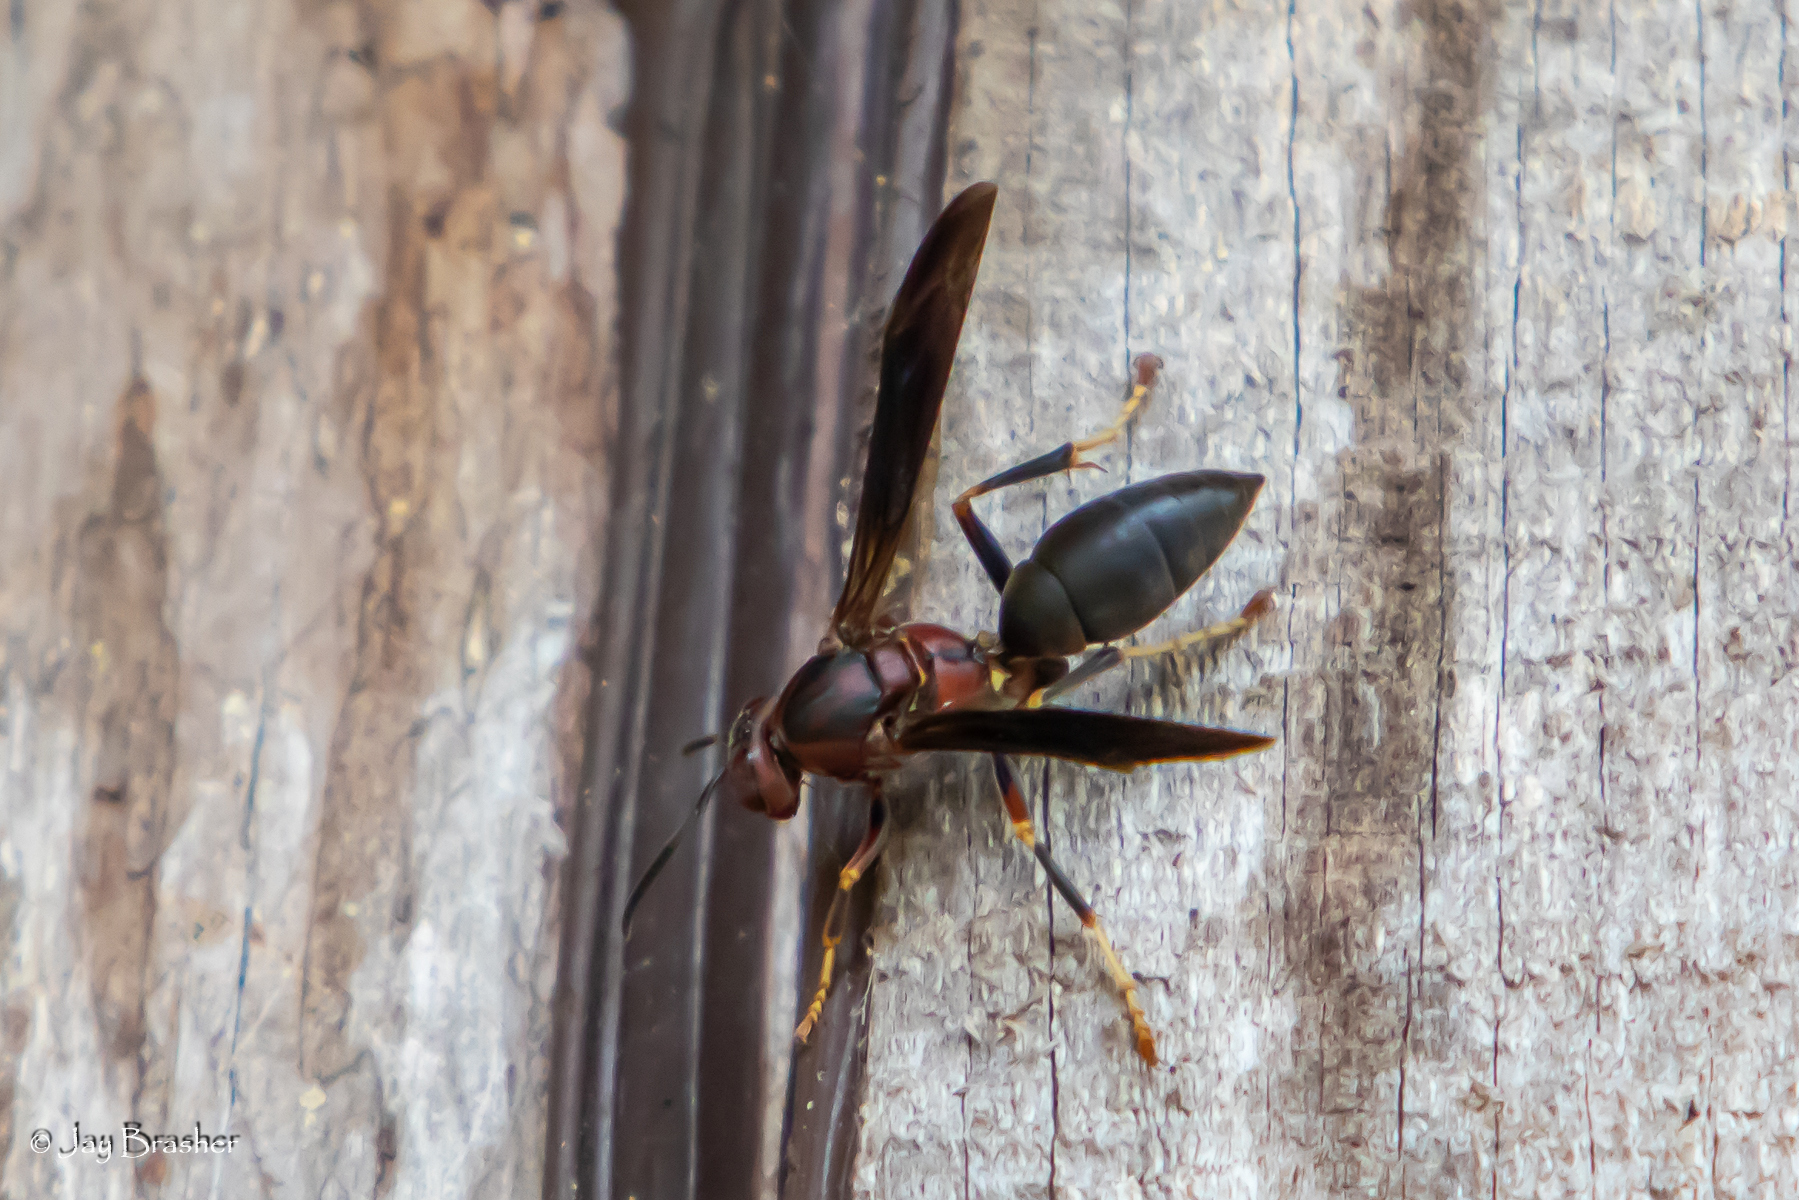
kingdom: Animalia
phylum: Arthropoda
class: Insecta
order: Hymenoptera
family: Eumenidae
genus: Polistes
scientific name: Polistes metricus
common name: Metric paper wasp
